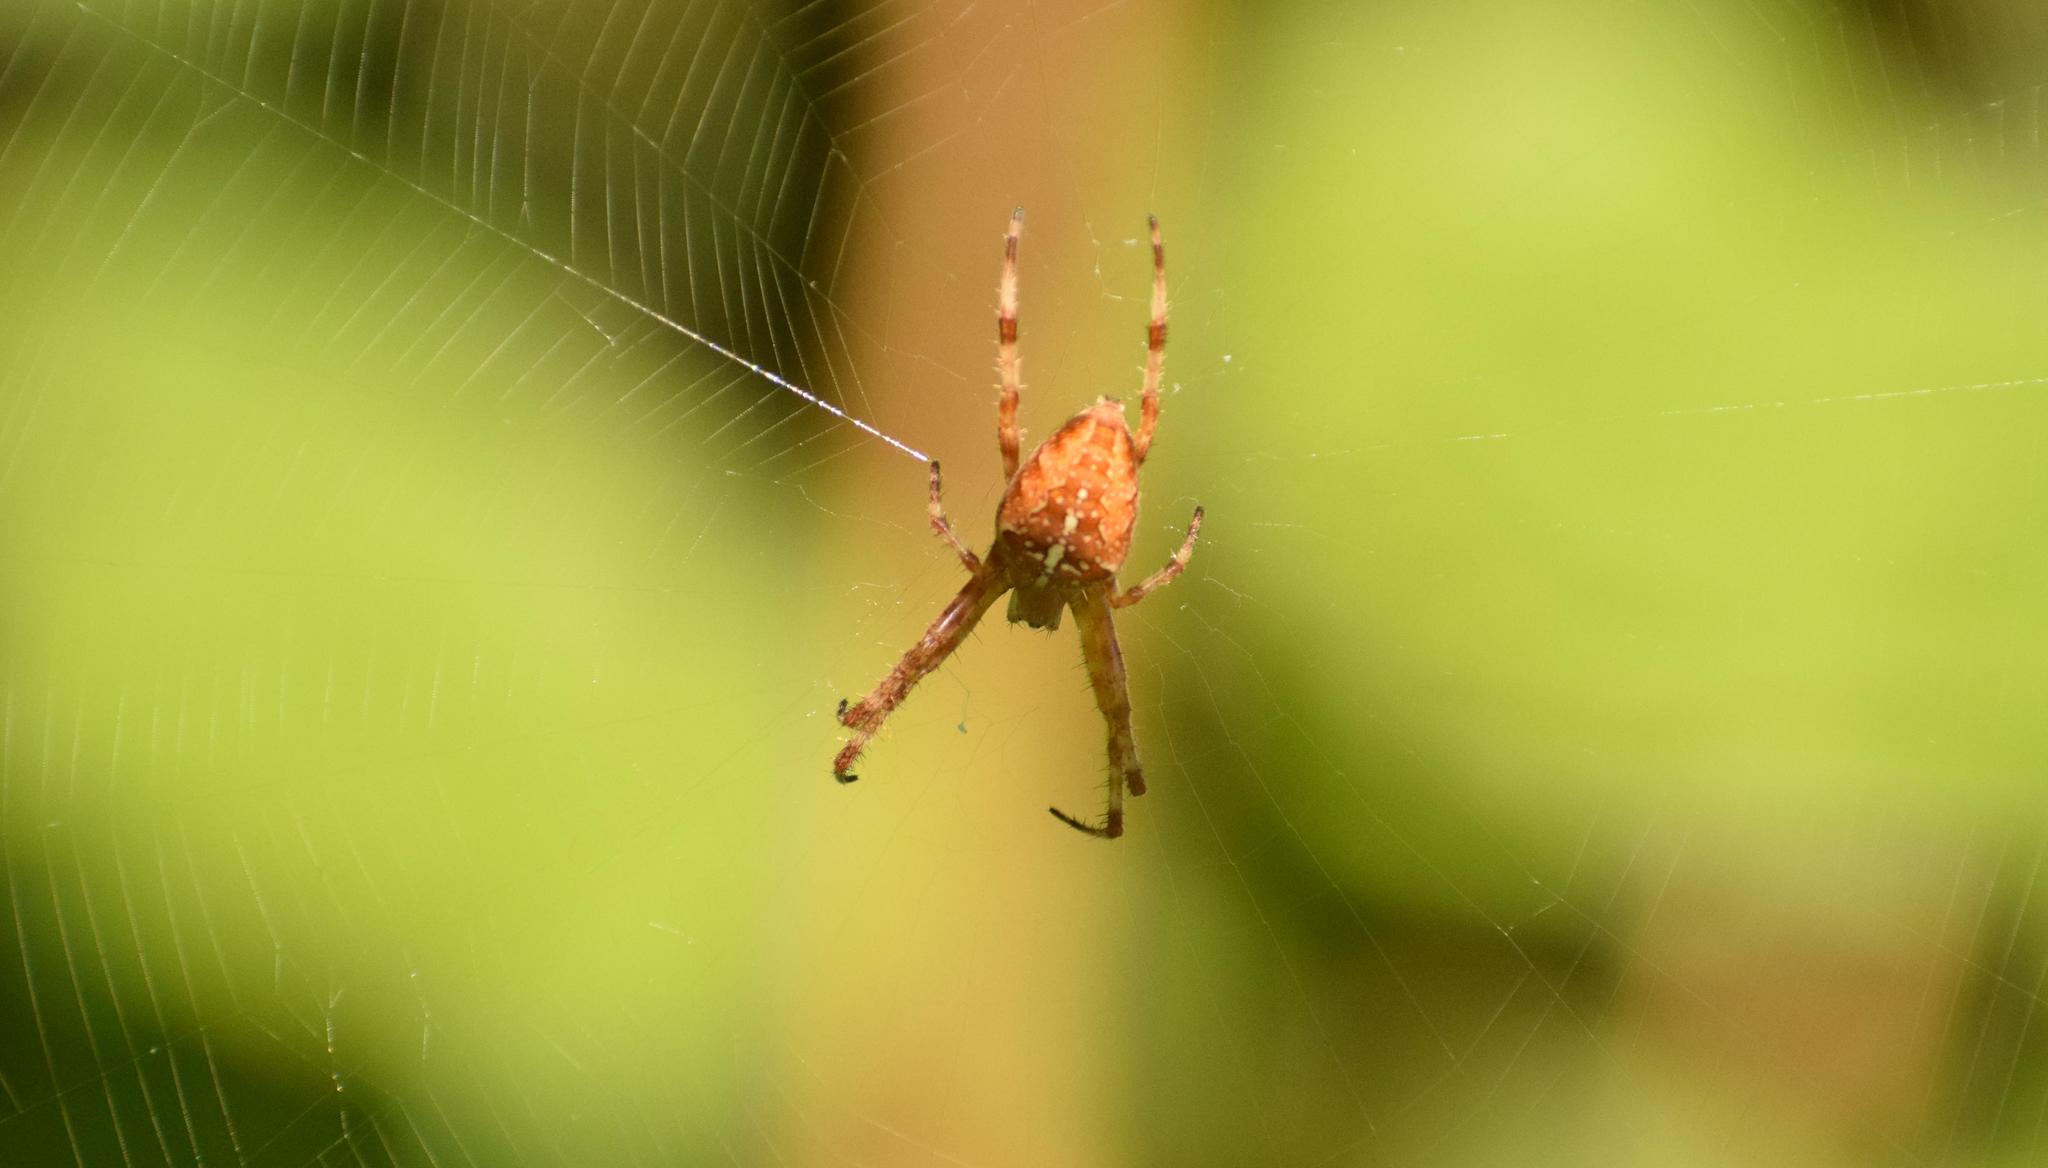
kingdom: Animalia
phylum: Arthropoda
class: Arachnida
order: Araneae
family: Araneidae
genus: Araneus
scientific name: Araneus diadematus
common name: Cross orbweaver
